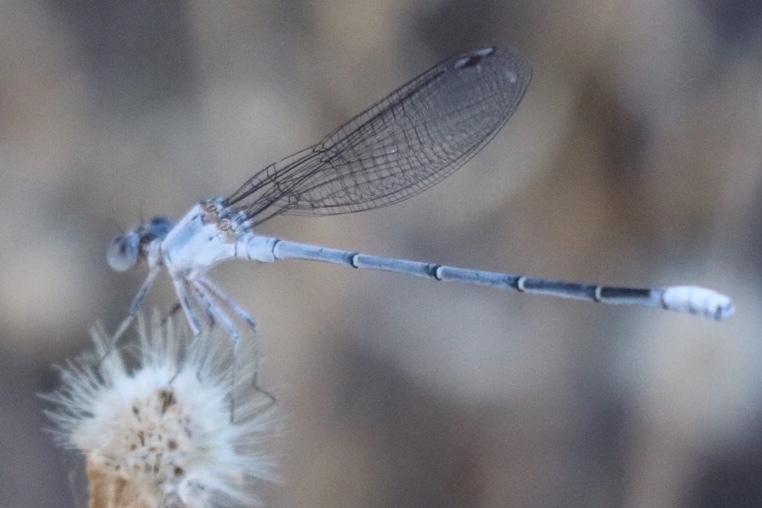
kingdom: Animalia
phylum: Arthropoda
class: Insecta
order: Odonata
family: Coenagrionidae
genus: Argia
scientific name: Argia moesta
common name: Powdered dancer
